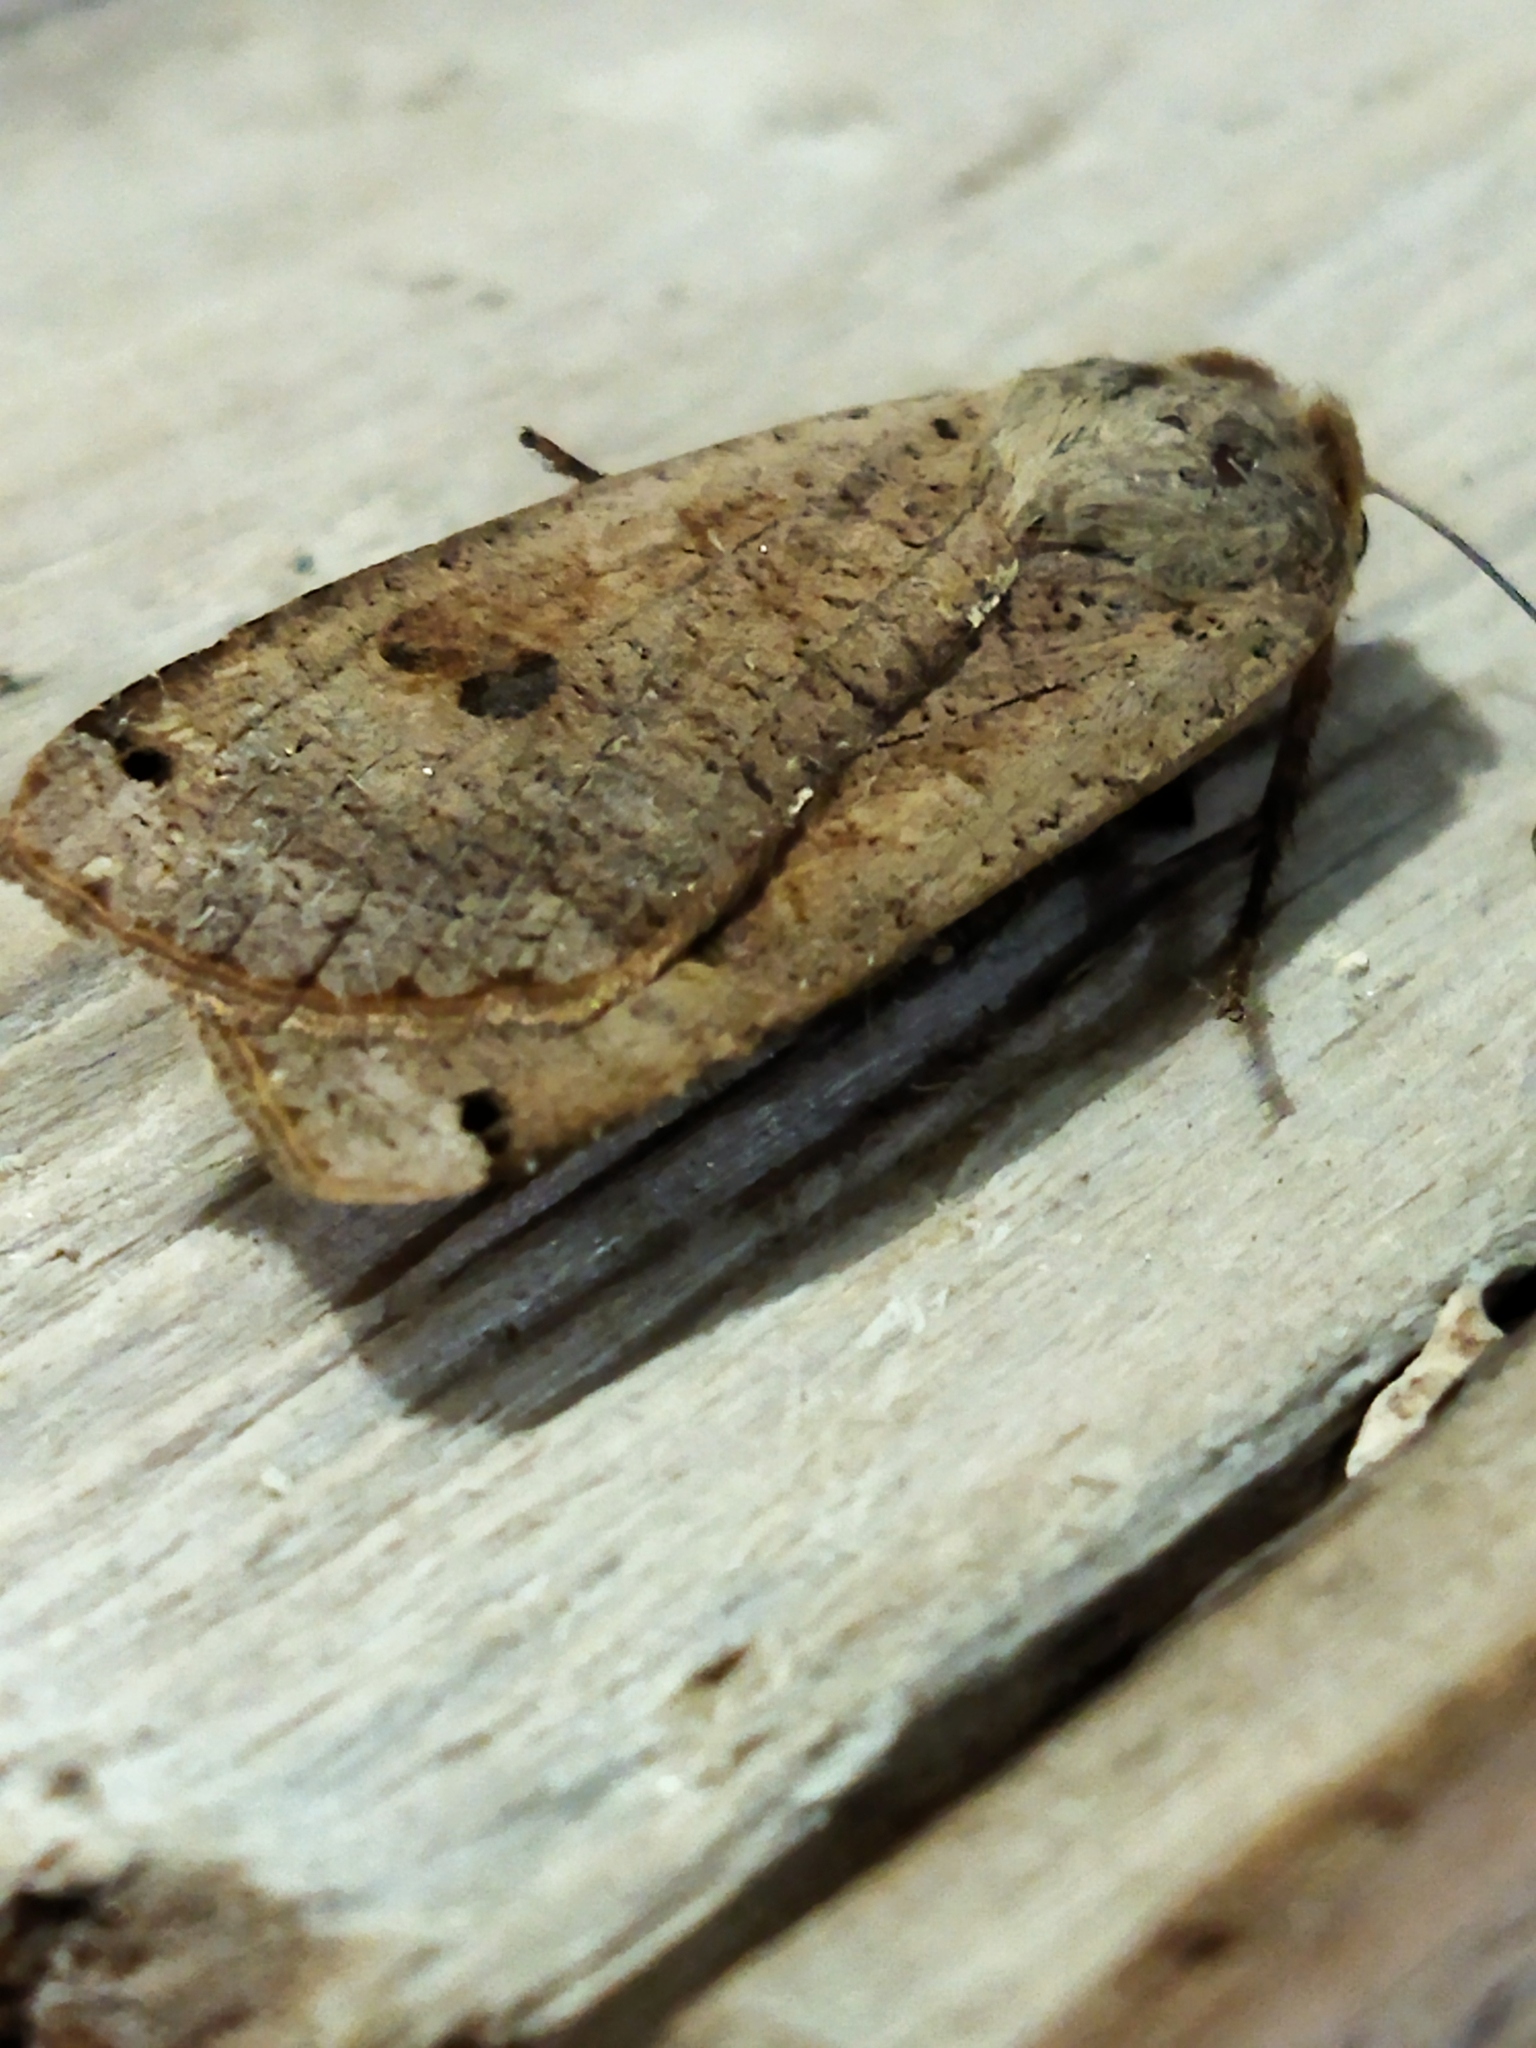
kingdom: Animalia
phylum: Arthropoda
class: Insecta
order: Lepidoptera
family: Noctuidae
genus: Noctua
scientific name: Noctua pronuba
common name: Large yellow underwing
